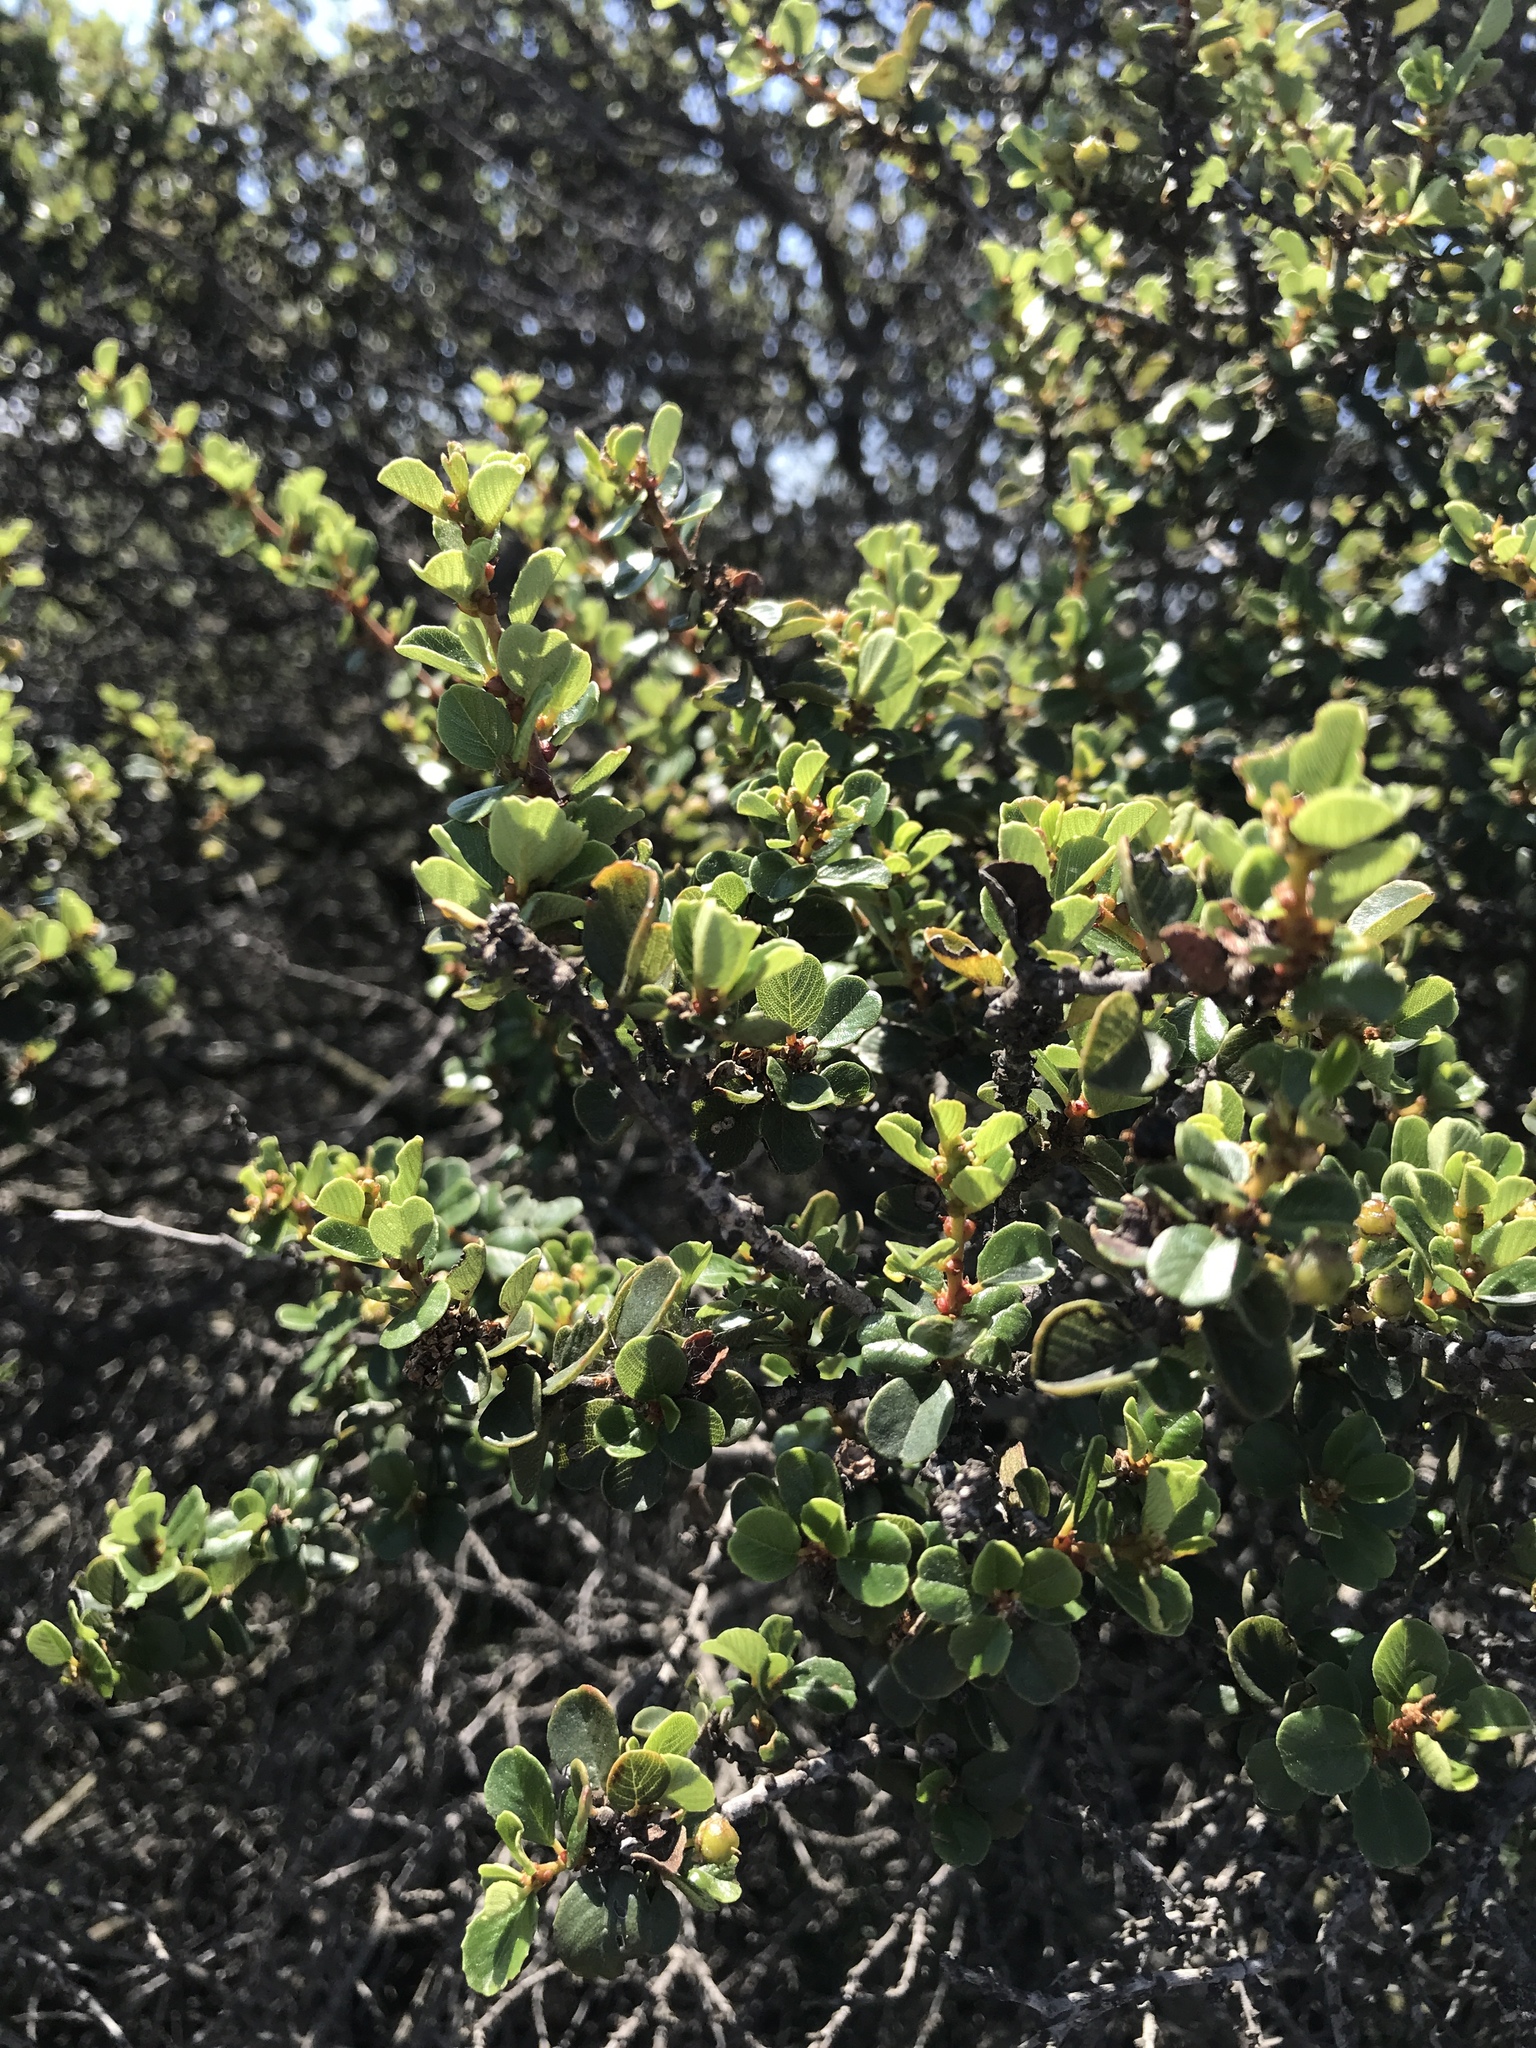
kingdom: Plantae
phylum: Tracheophyta
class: Magnoliopsida
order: Rosales
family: Rhamnaceae
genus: Ceanothus
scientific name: Ceanothus verrucosus
